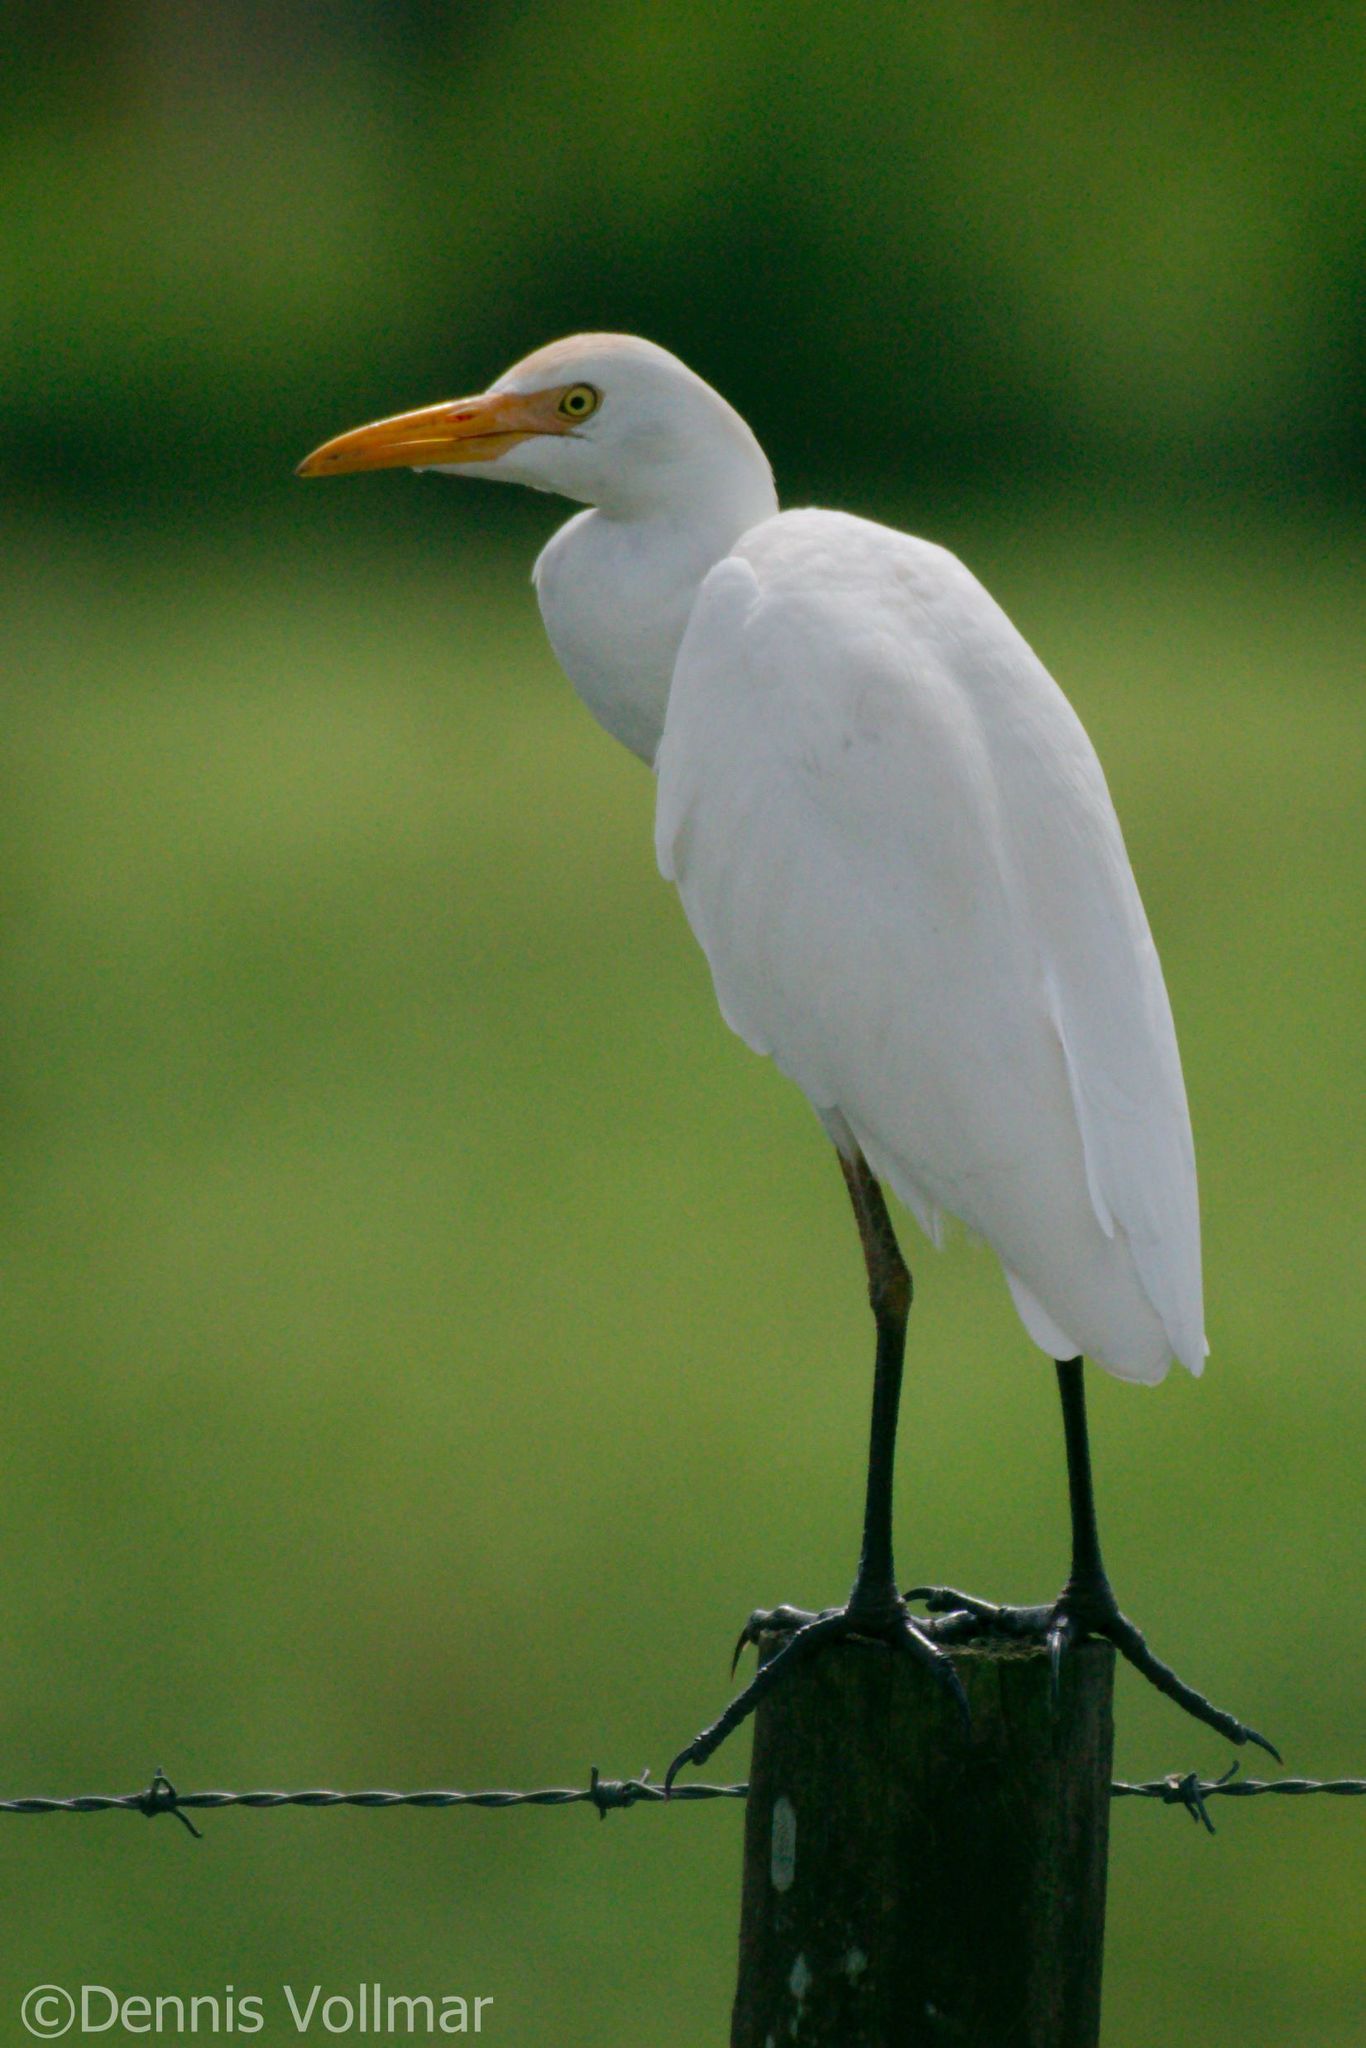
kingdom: Animalia
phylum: Chordata
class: Aves
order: Pelecaniformes
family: Ardeidae
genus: Bubulcus
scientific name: Bubulcus ibis
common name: Cattle egret
